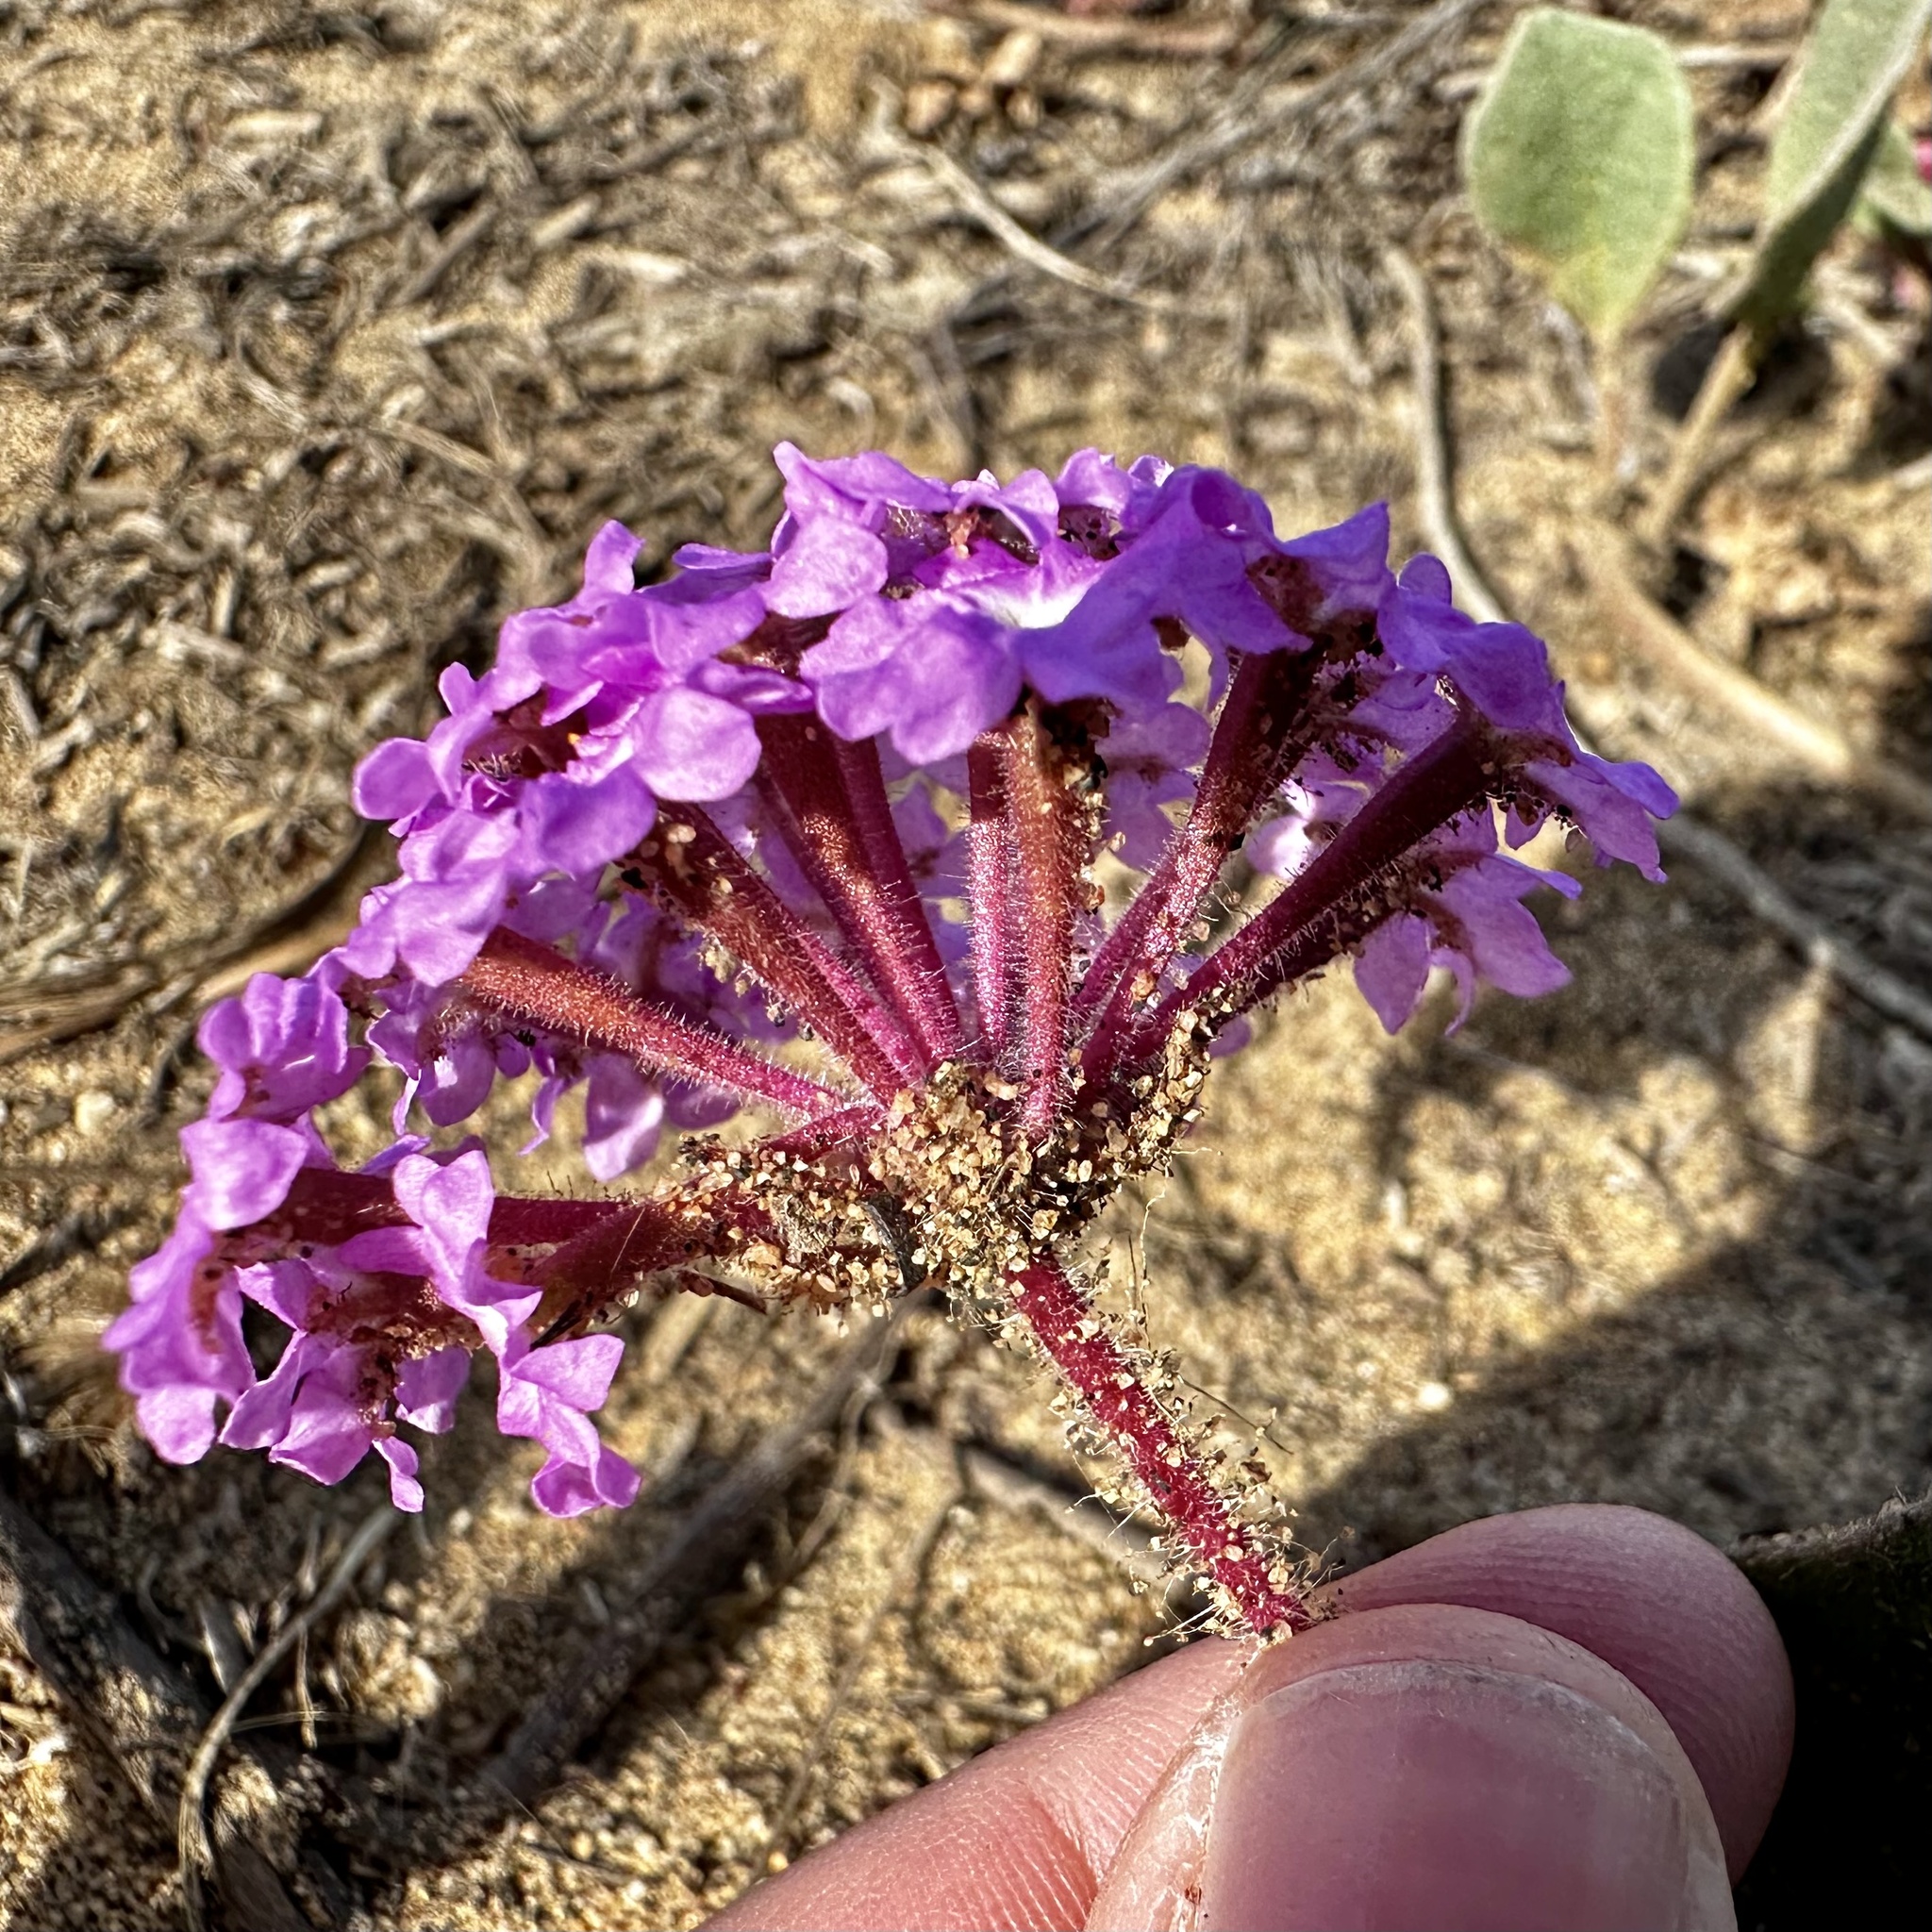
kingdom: Plantae
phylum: Tracheophyta
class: Magnoliopsida
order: Caryophyllales
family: Nyctaginaceae
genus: Abronia
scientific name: Abronia umbellata
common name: Sand-verbena
